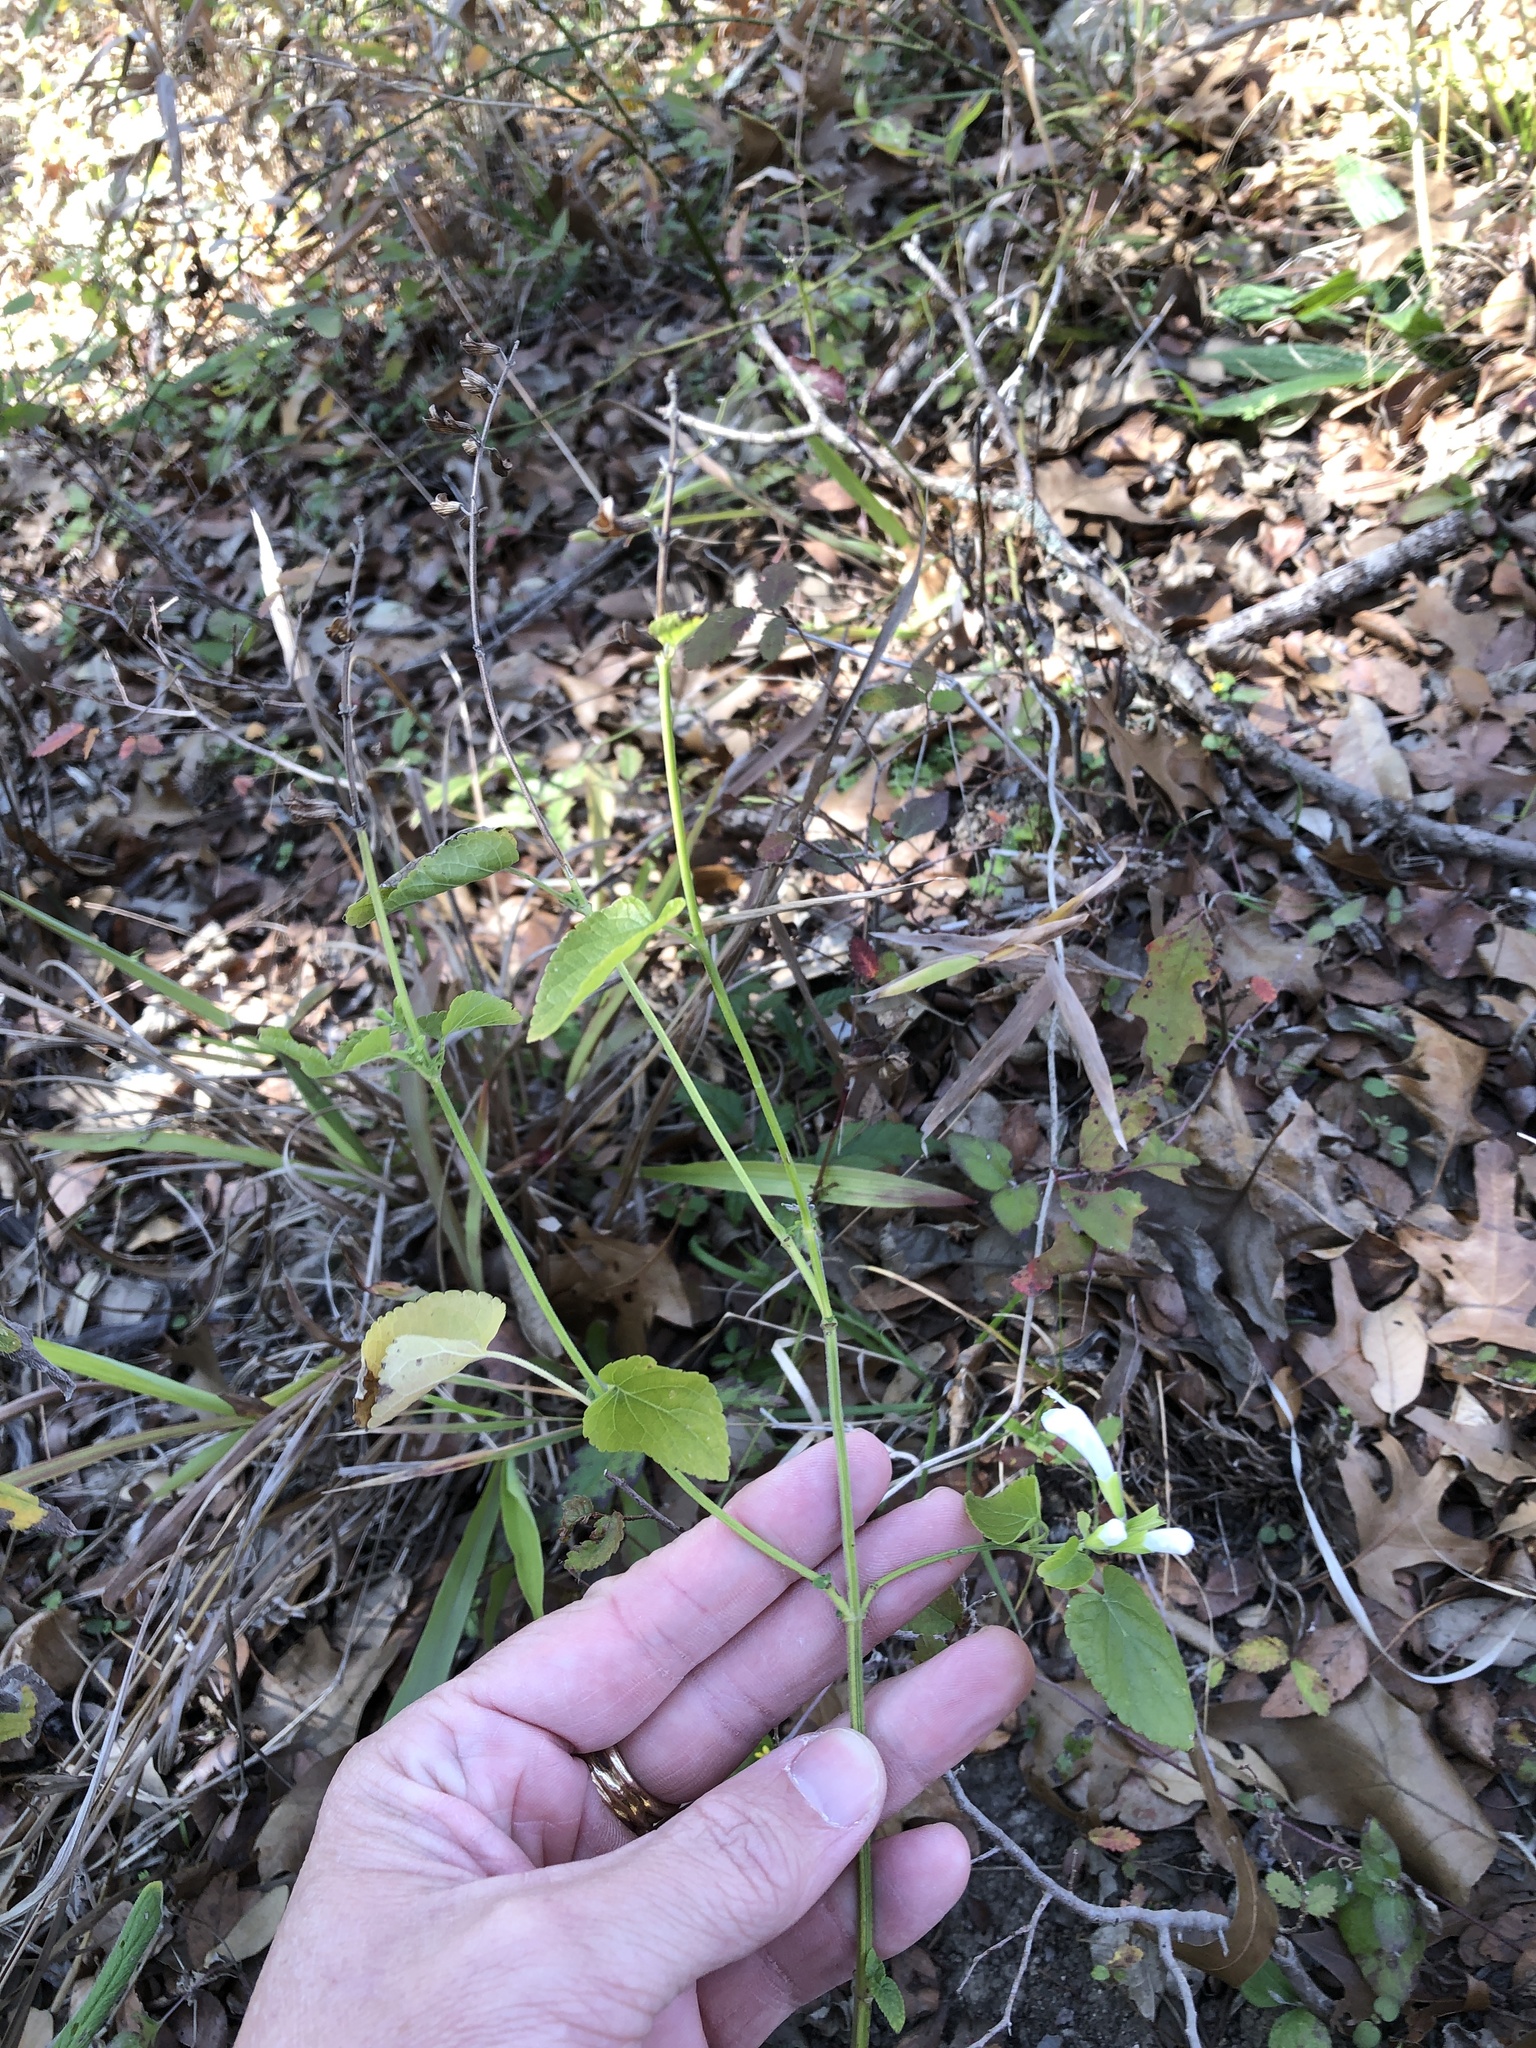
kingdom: Plantae
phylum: Tracheophyta
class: Magnoliopsida
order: Lamiales
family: Lamiaceae
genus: Salvia
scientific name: Salvia coccinea
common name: Blood sage
